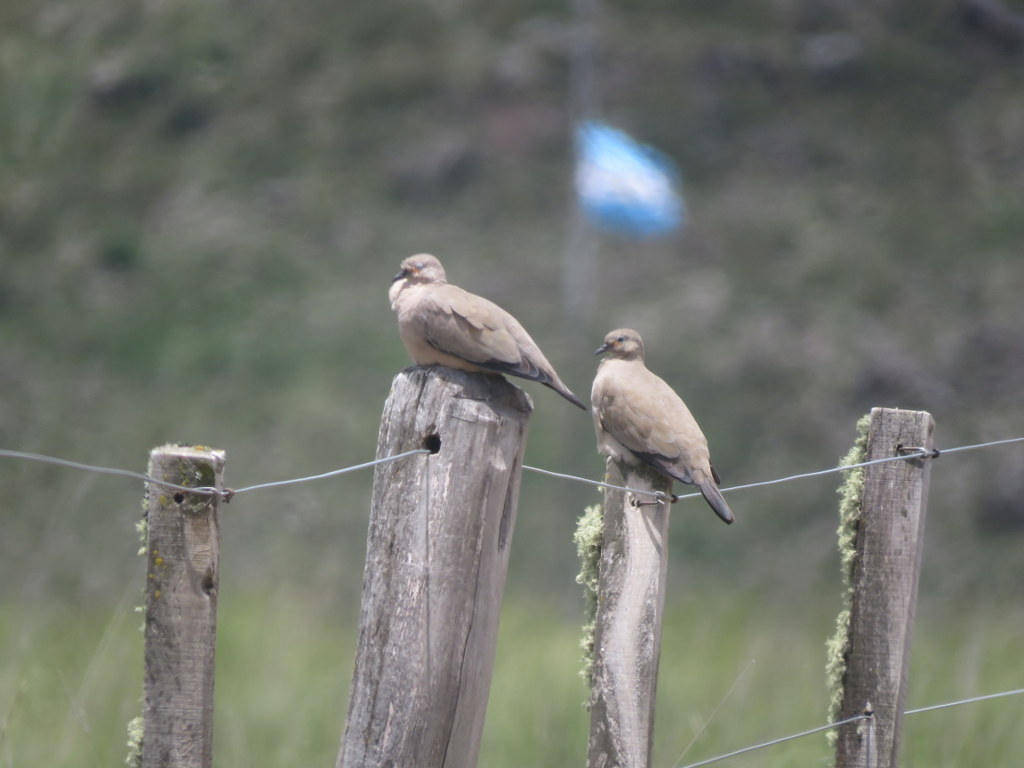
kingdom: Animalia
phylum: Chordata
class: Aves
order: Columbiformes
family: Columbidae
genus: Metriopelia
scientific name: Metriopelia melanoptera
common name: Black-winged ground dove
